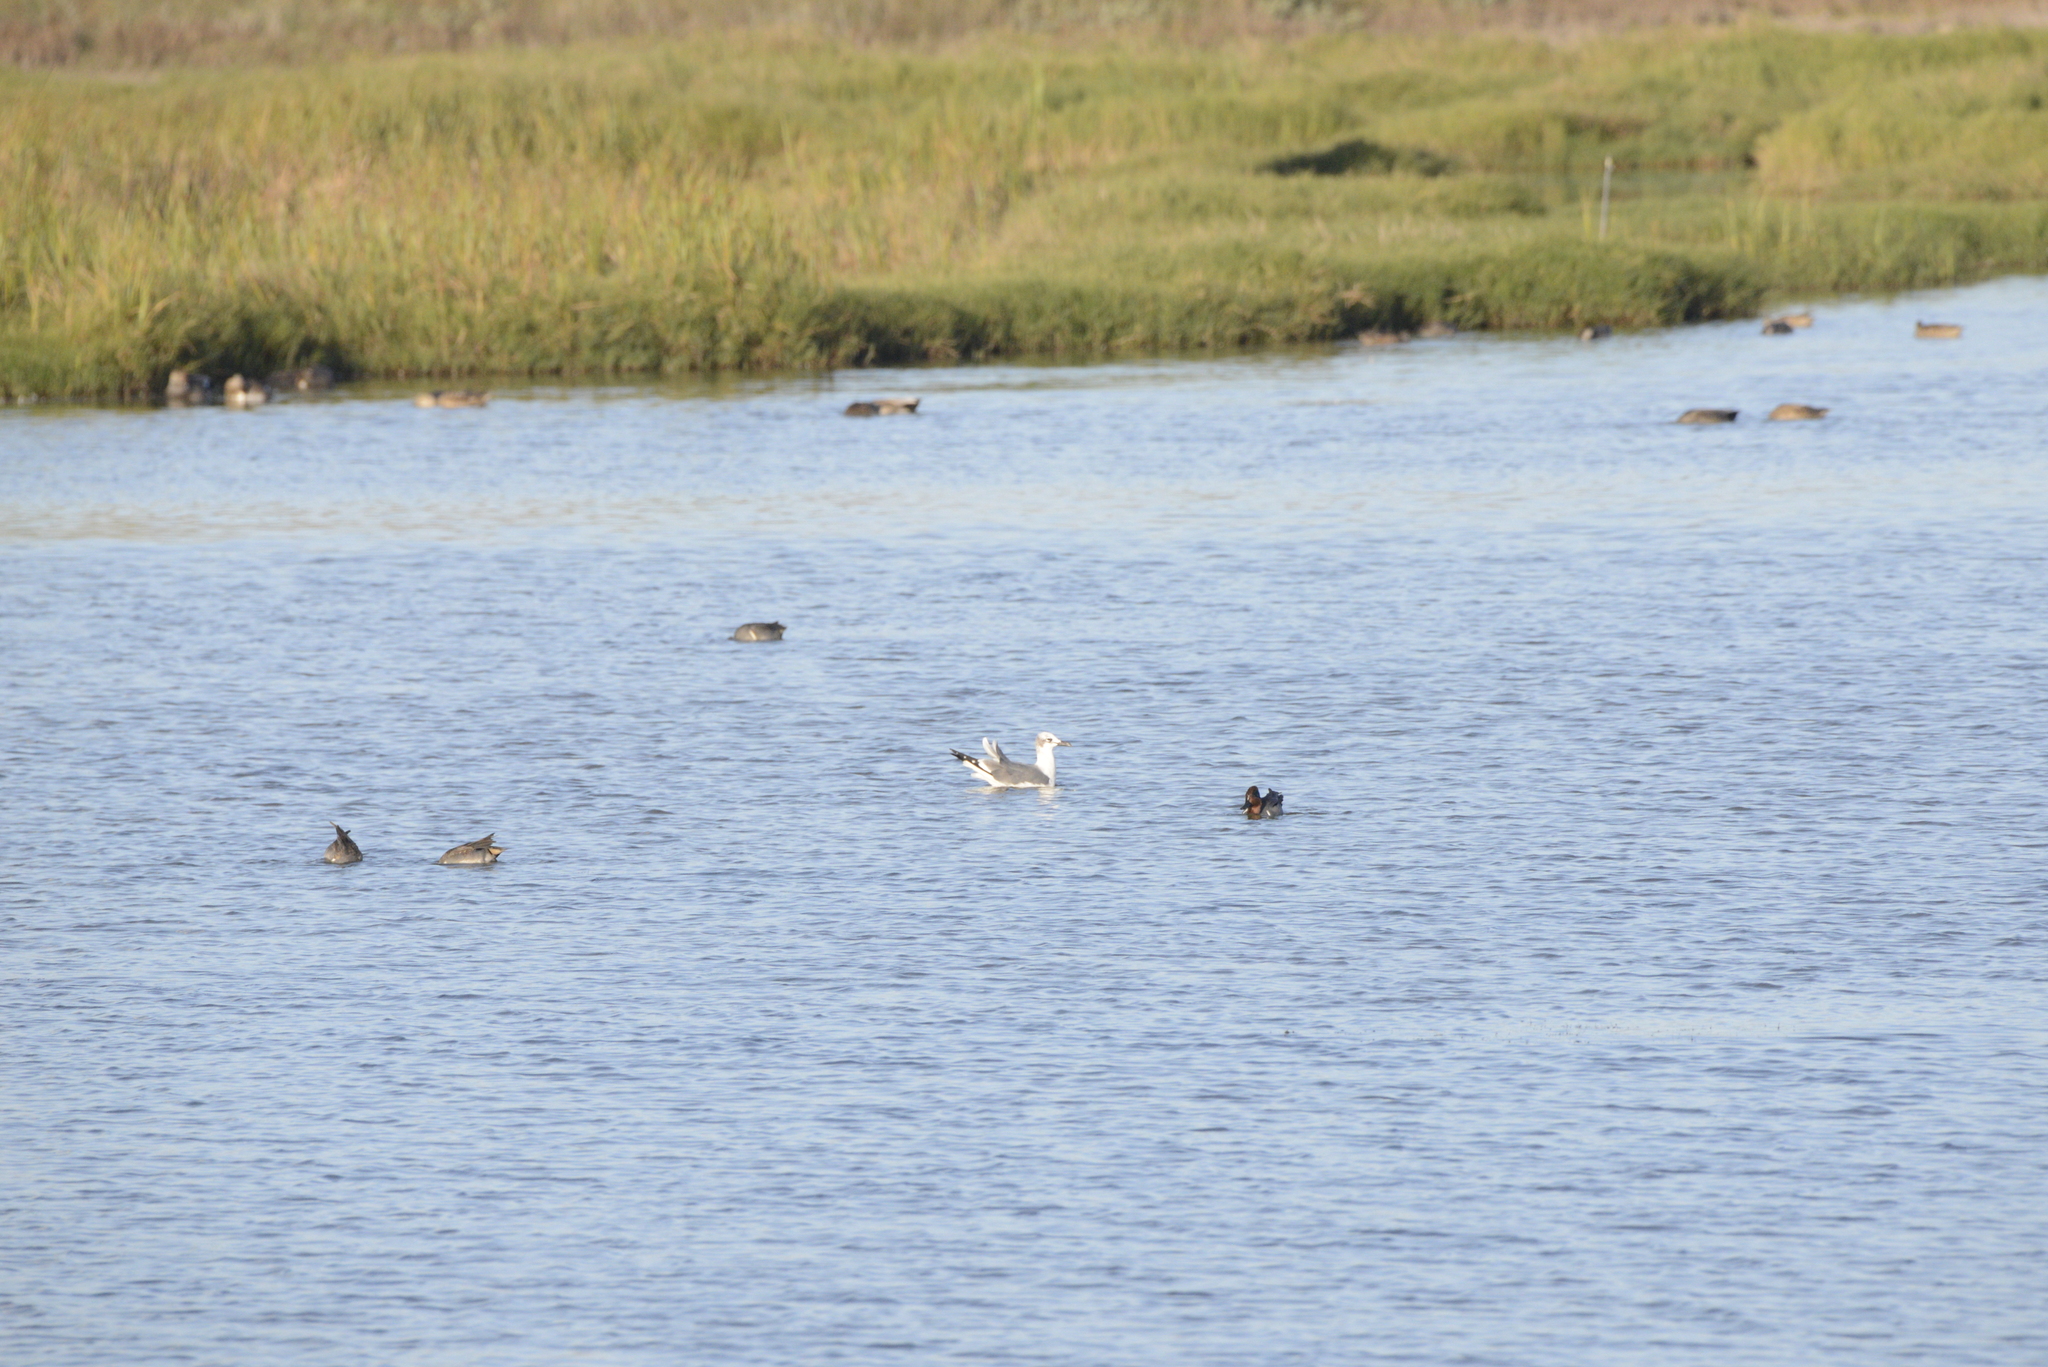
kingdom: Animalia
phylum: Chordata
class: Aves
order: Charadriiformes
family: Laridae
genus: Leucophaeus
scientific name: Leucophaeus atricilla
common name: Laughing gull
